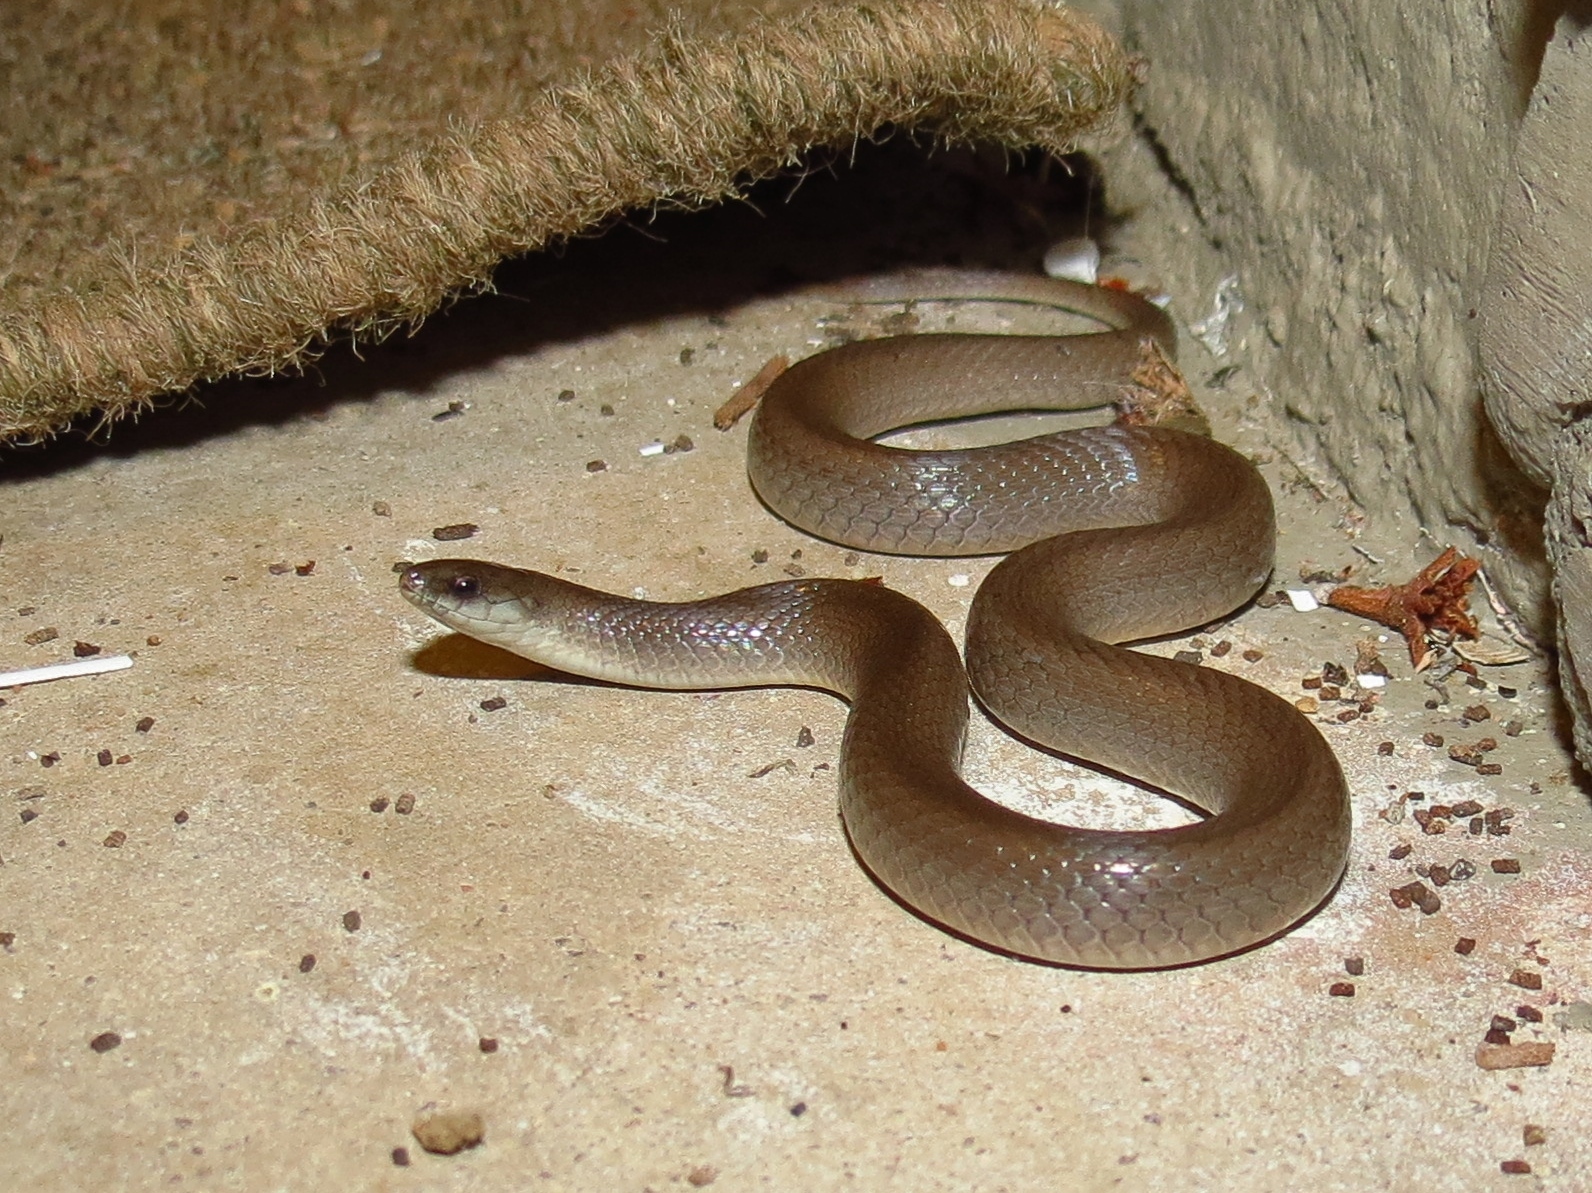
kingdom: Animalia
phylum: Chordata
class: Squamata
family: Colubridae
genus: Haldea
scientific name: Haldea striatula
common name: Rough earth snake
